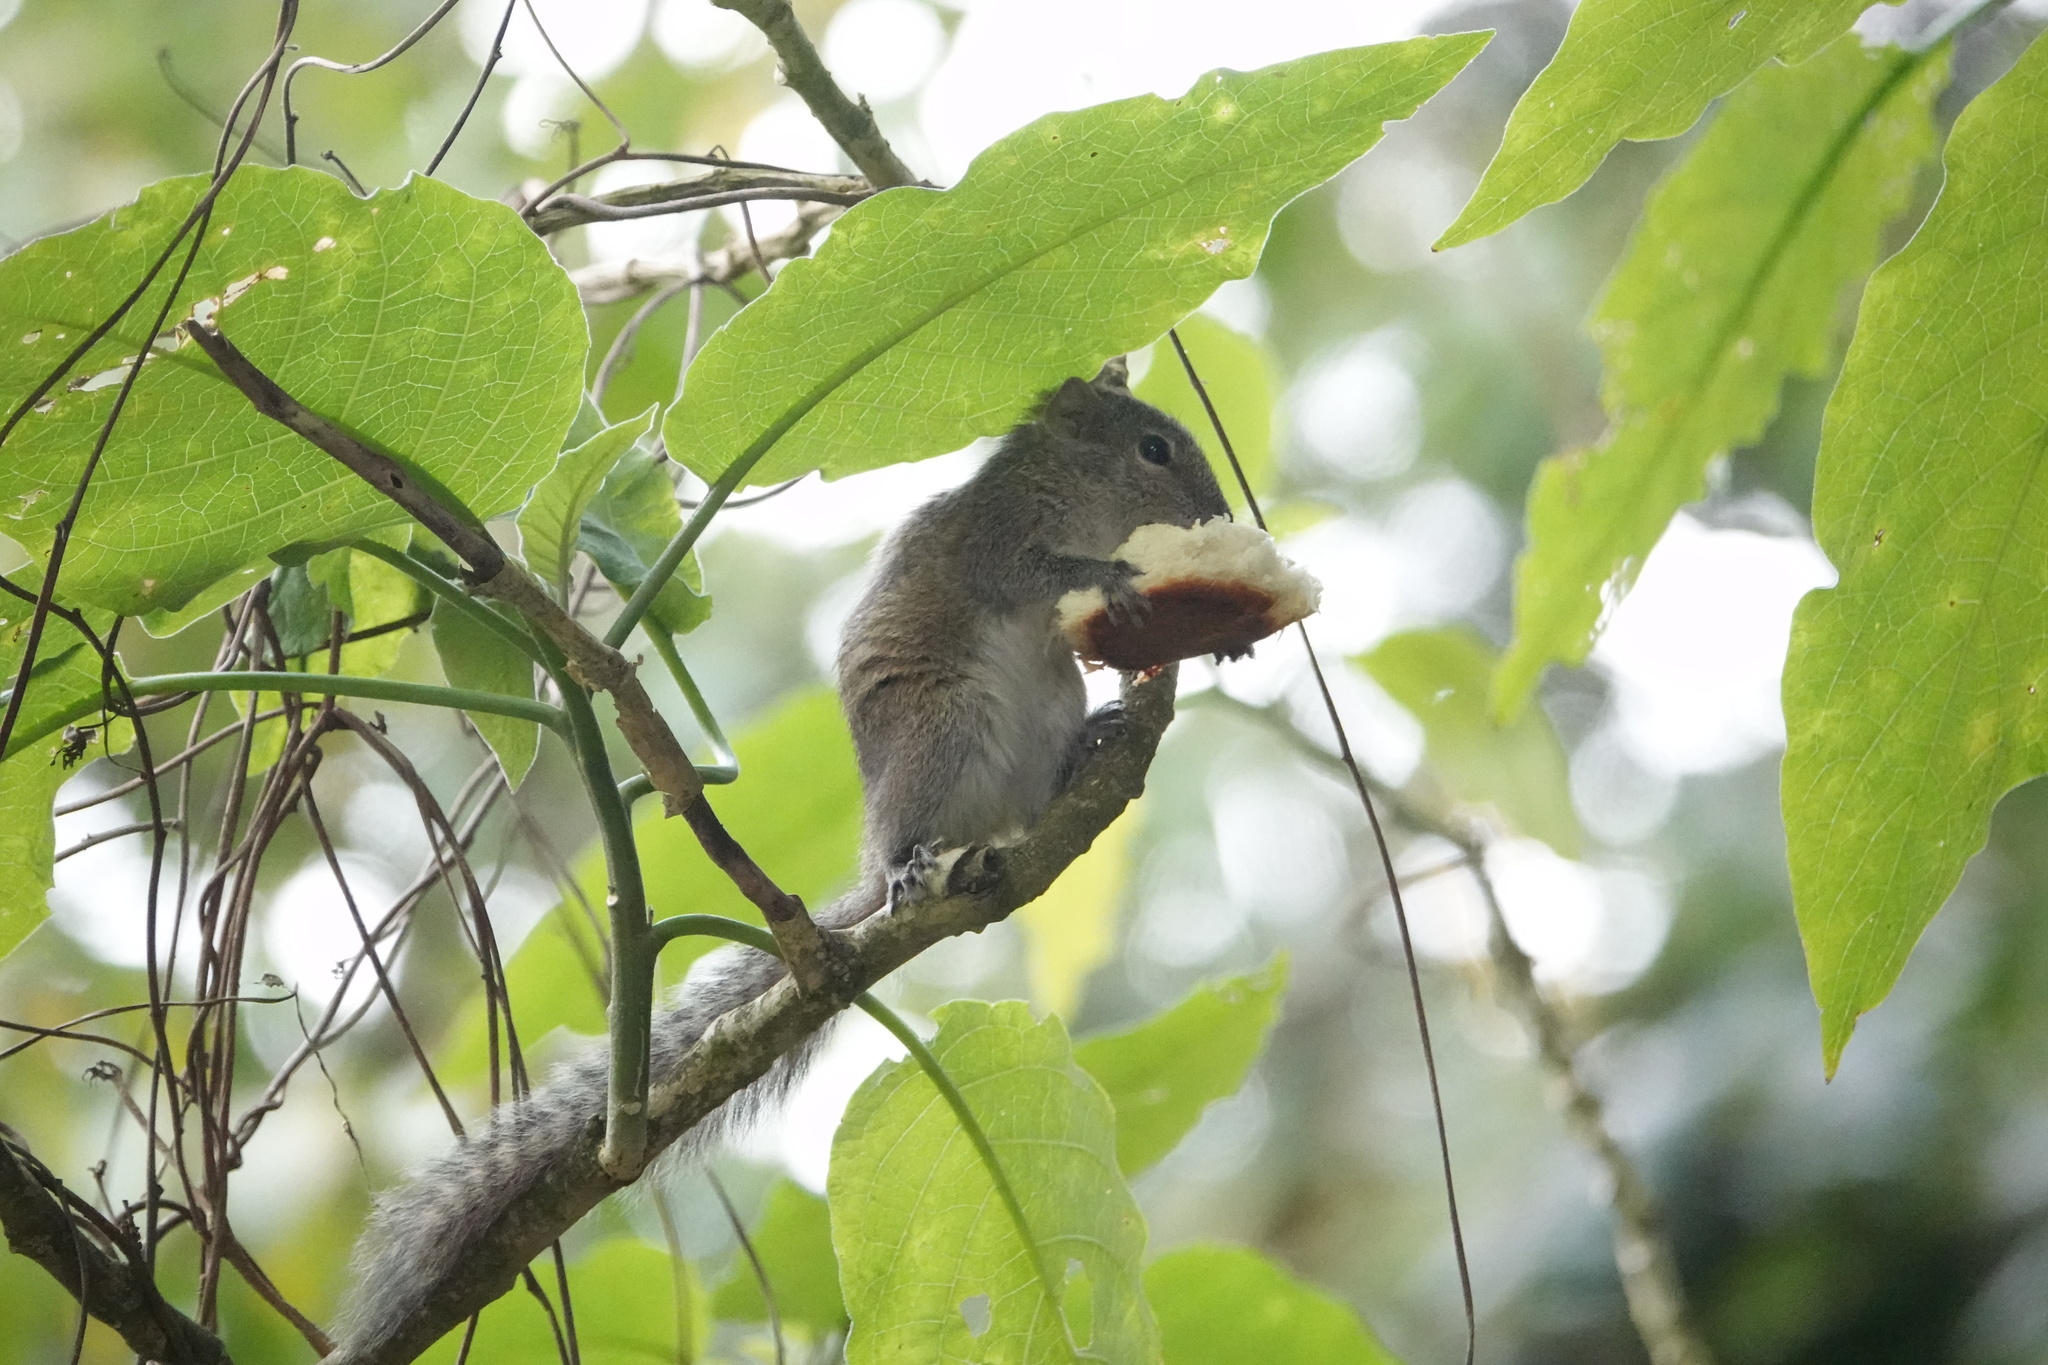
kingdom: Animalia
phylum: Chordata
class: Mammalia
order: Rodentia
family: Sciuridae
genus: Funambulus
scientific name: Funambulus palmarum
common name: Indian palm squirrel
